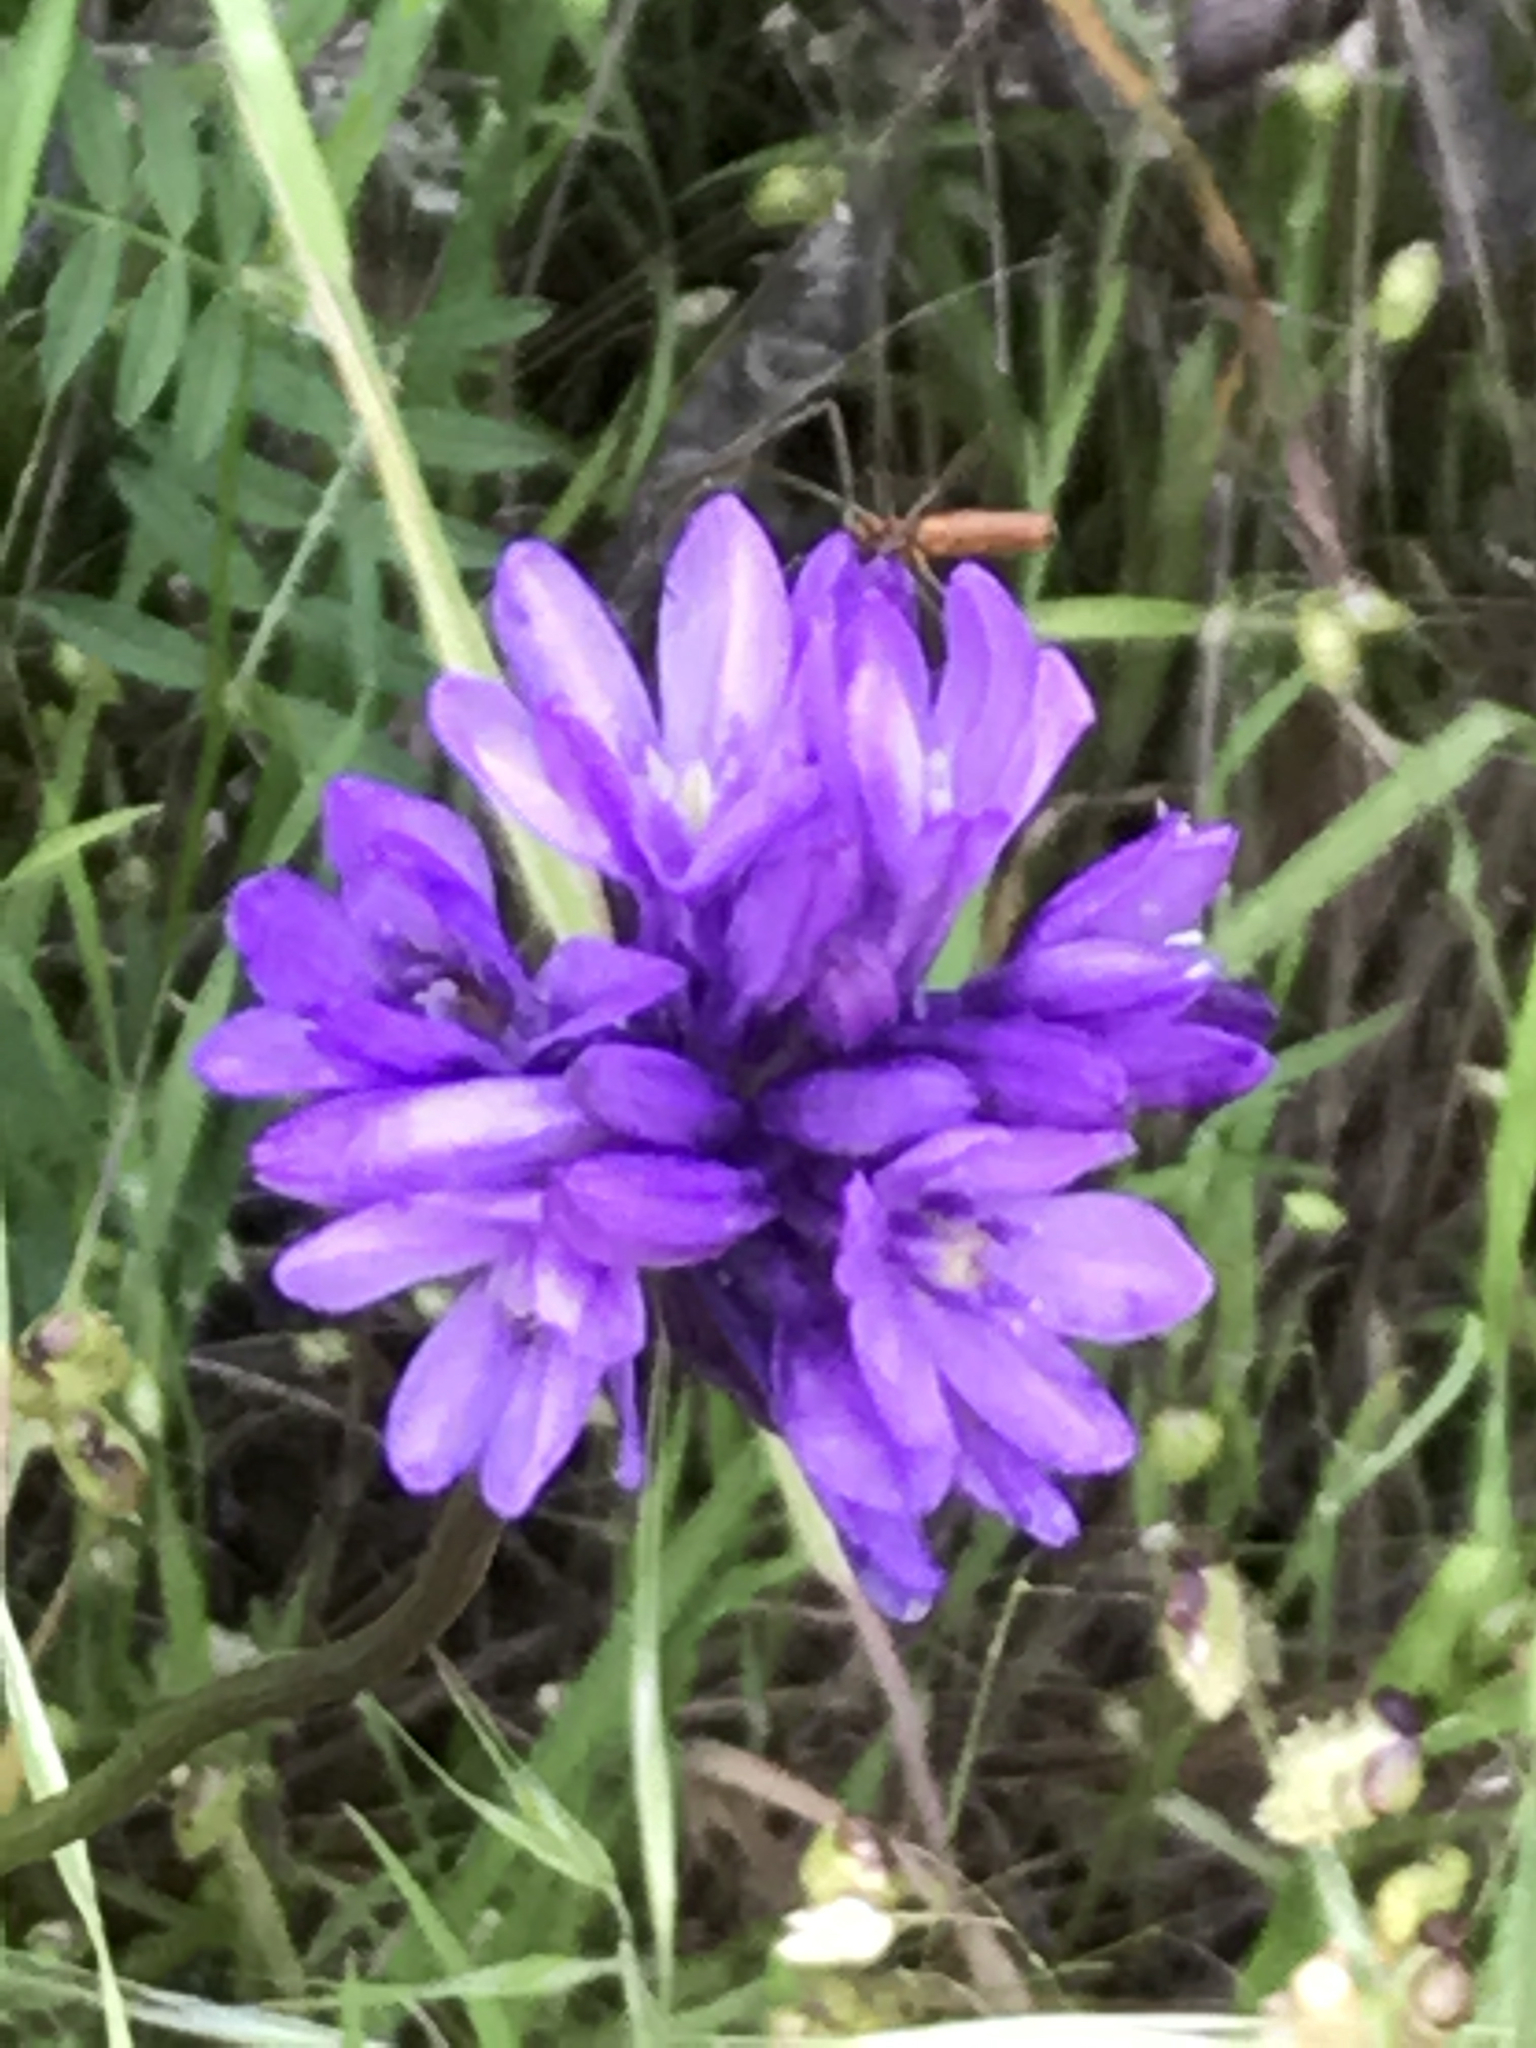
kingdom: Plantae
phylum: Tracheophyta
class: Liliopsida
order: Asparagales
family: Asparagaceae
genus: Dichelostemma
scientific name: Dichelostemma congestum
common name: Fork-tooth ookow
